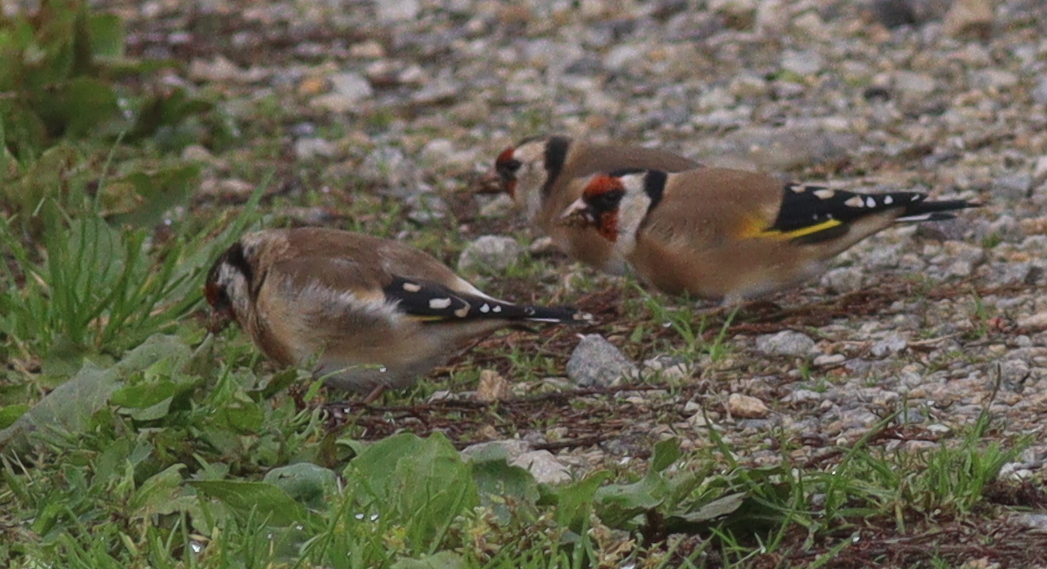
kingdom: Animalia
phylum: Chordata
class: Aves
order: Passeriformes
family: Fringillidae
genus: Carduelis
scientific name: Carduelis carduelis
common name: European goldfinch
